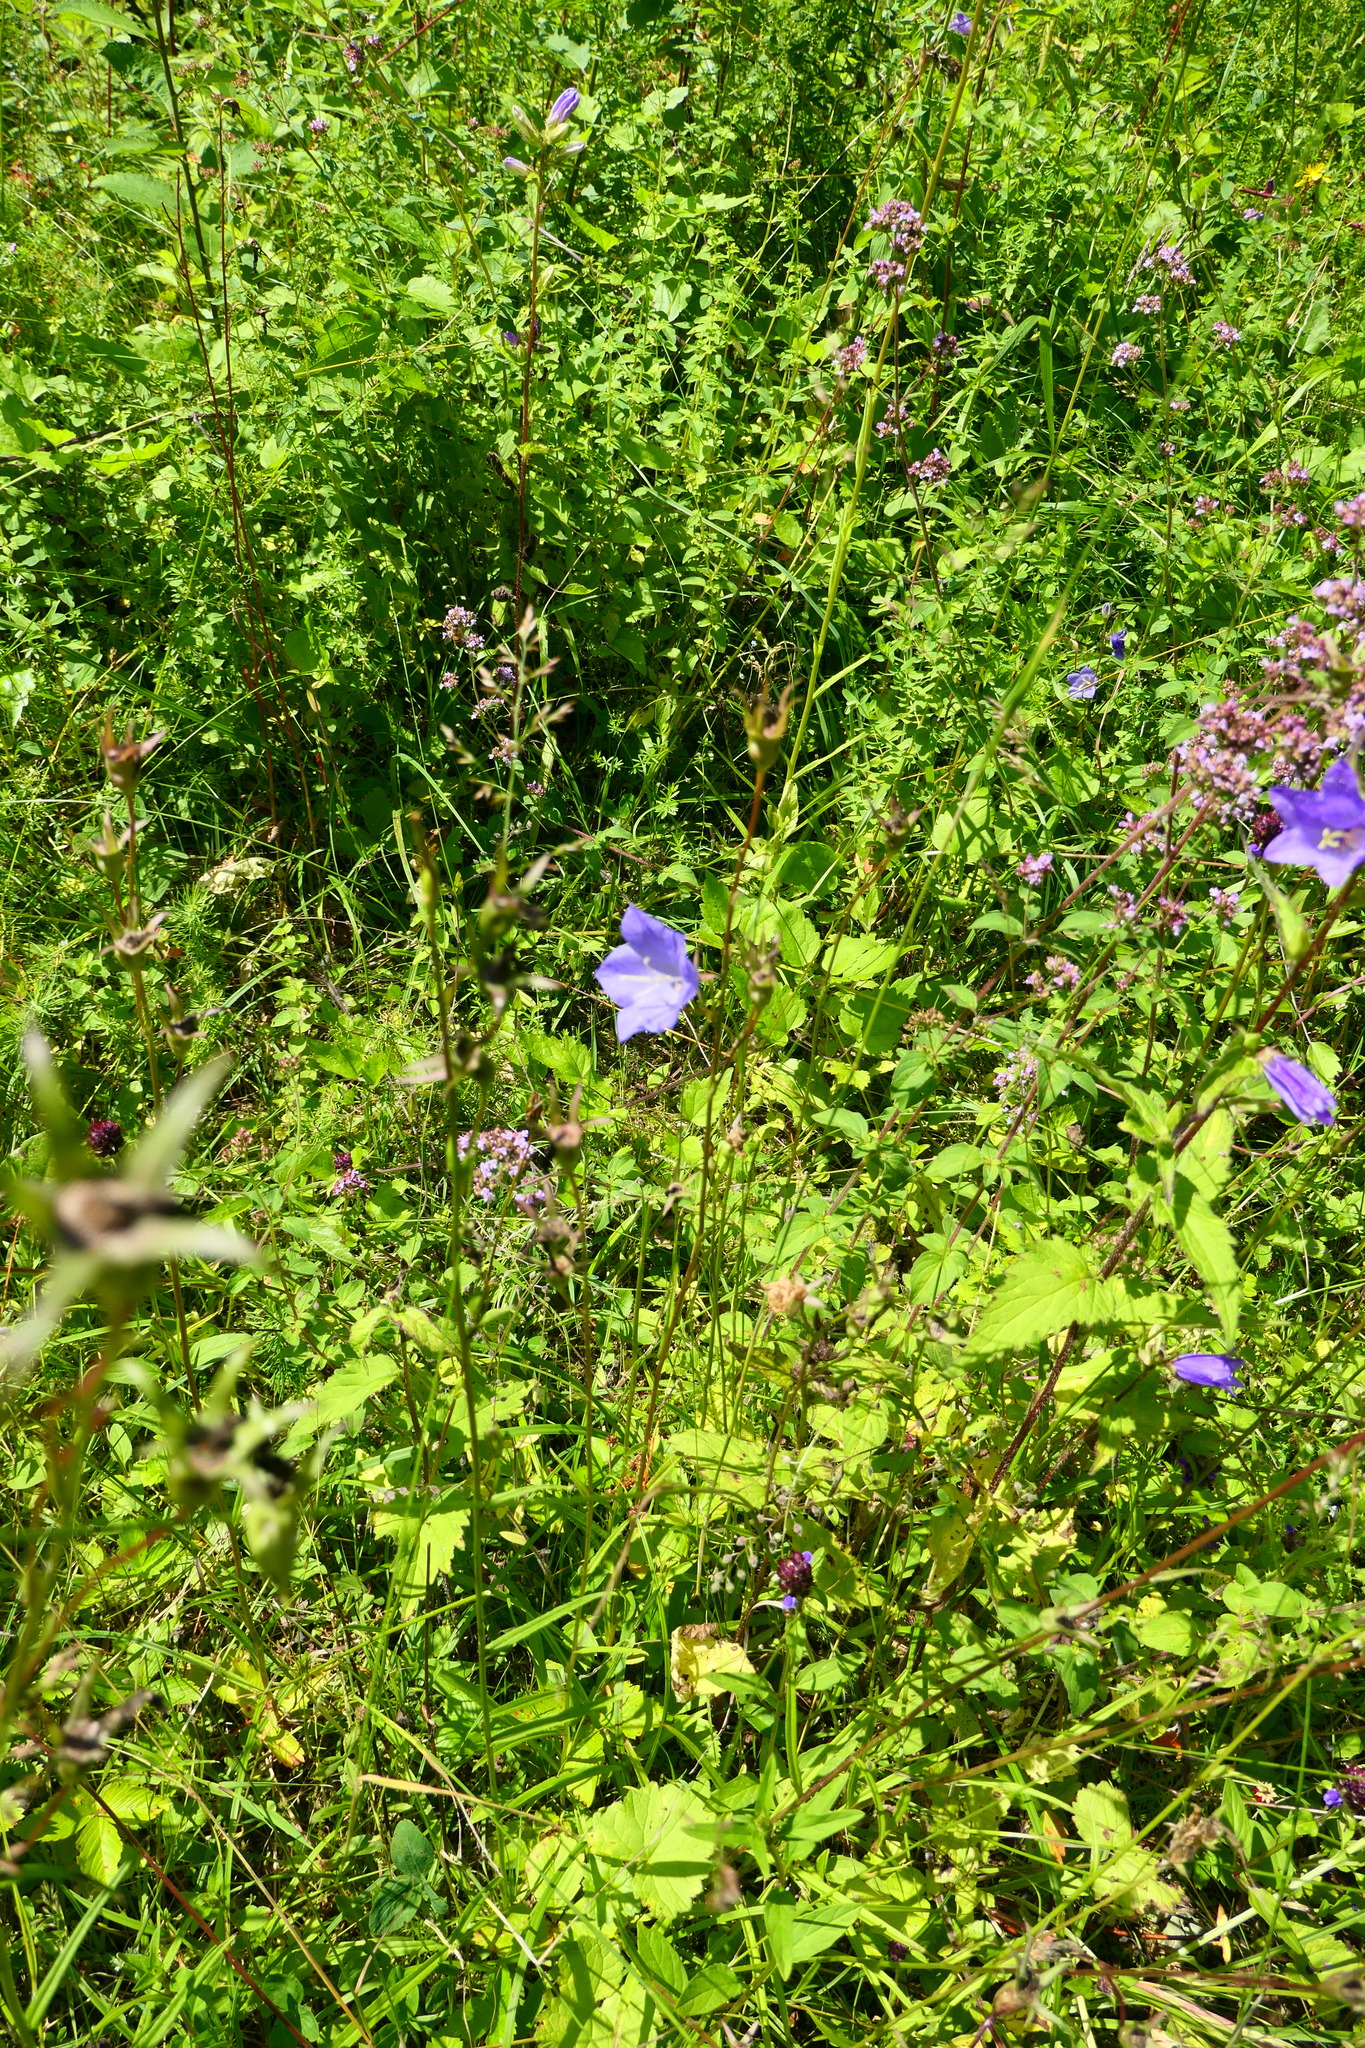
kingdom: Plantae
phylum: Tracheophyta
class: Magnoliopsida
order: Asterales
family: Campanulaceae
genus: Campanula
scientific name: Campanula persicifolia
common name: Peach-leaved bellflower
